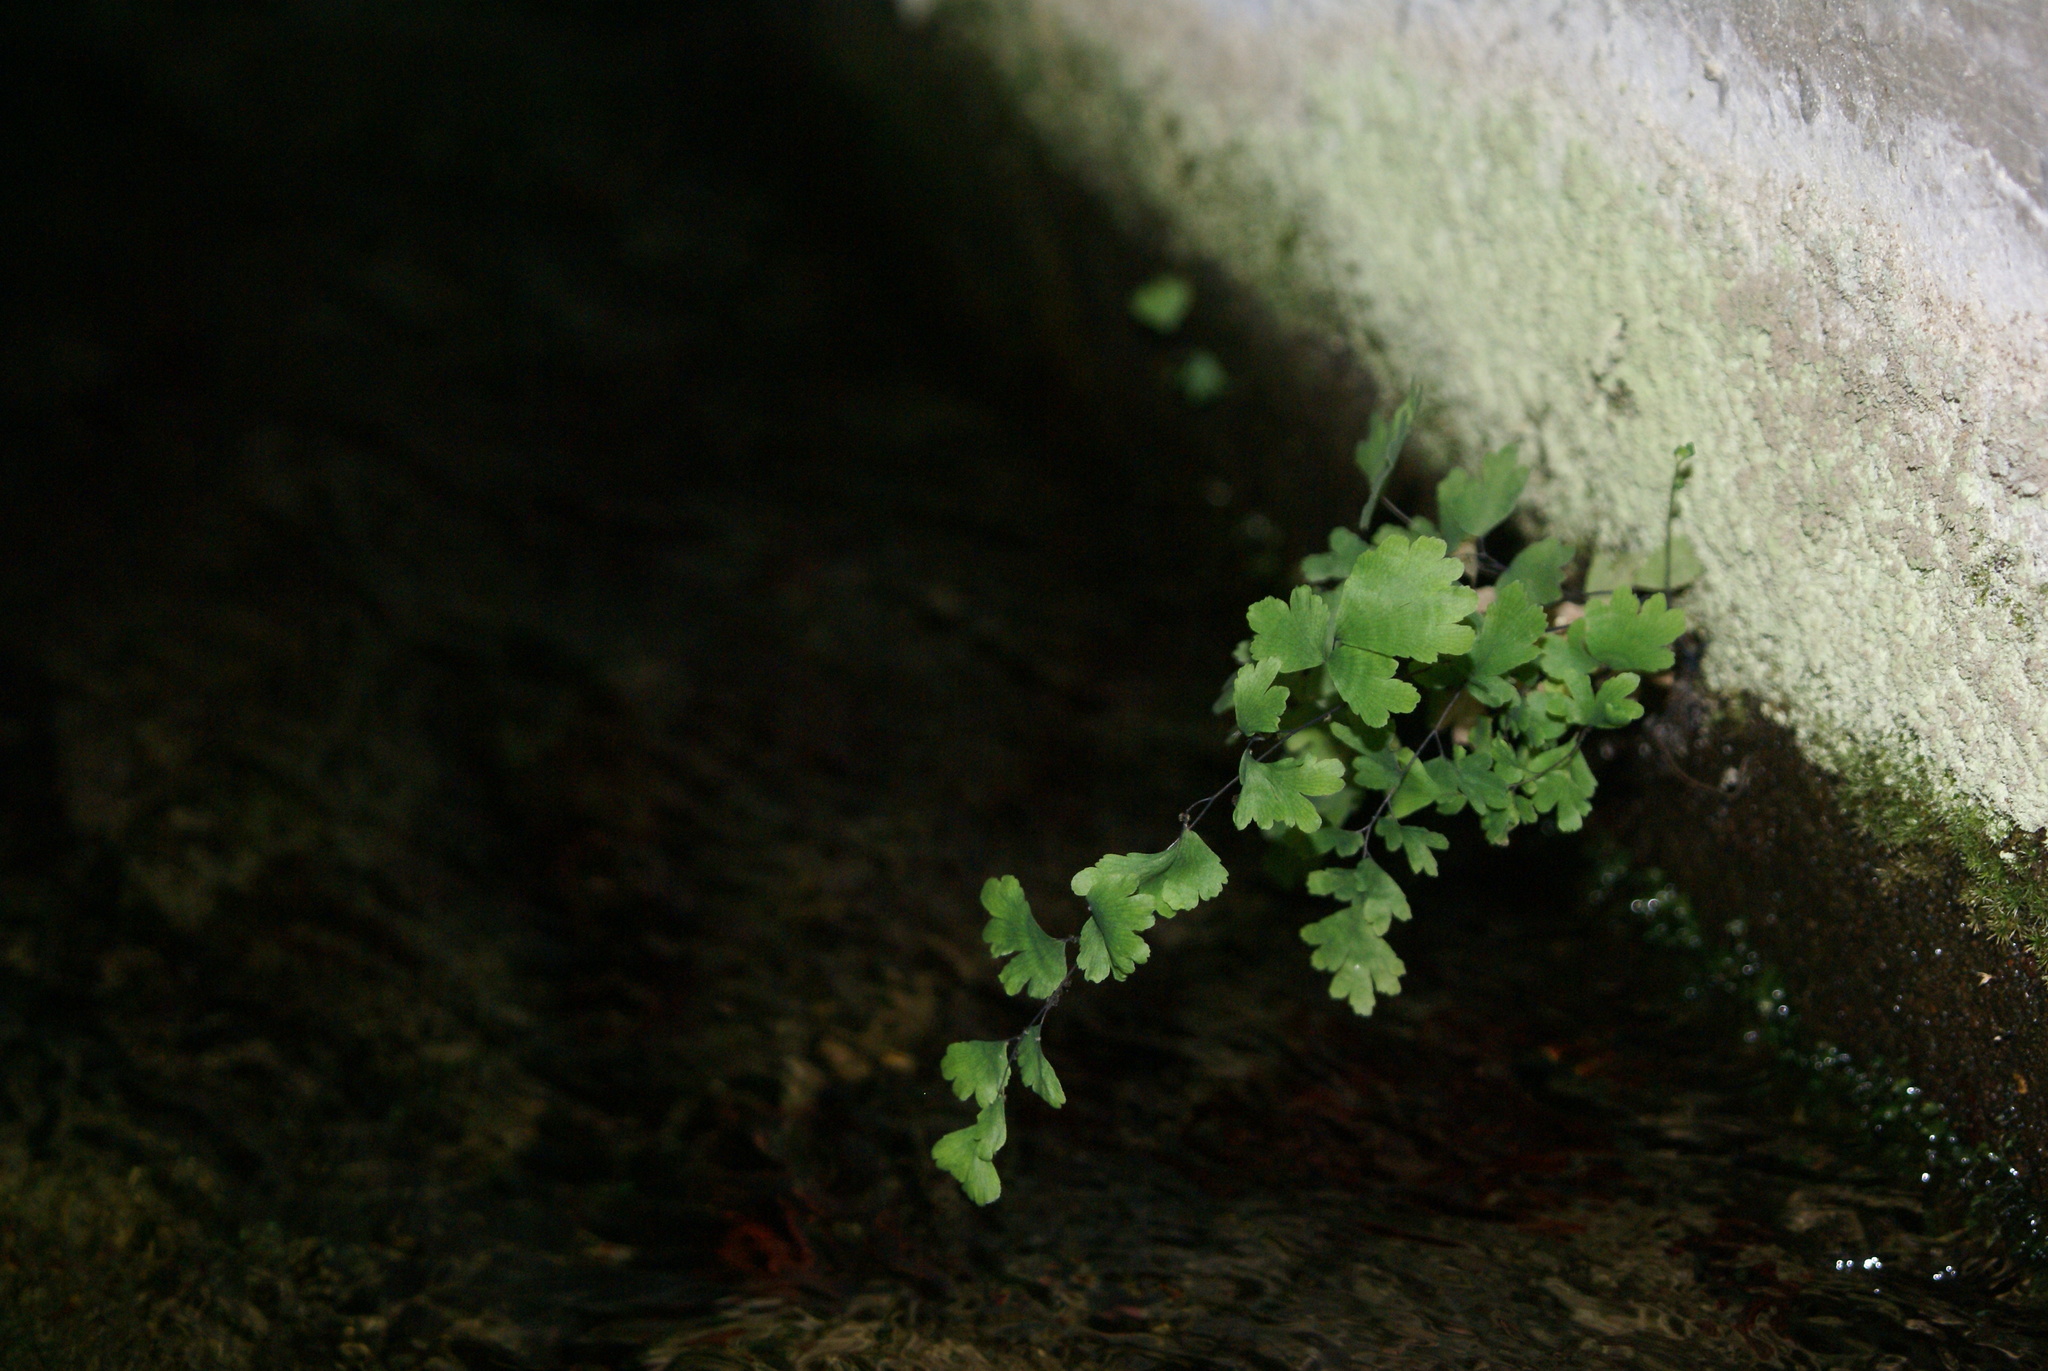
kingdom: Plantae
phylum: Tracheophyta
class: Polypodiopsida
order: Polypodiales
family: Pteridaceae
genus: Adiantum
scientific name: Adiantum capillus-veneris
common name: Maidenhair fern
